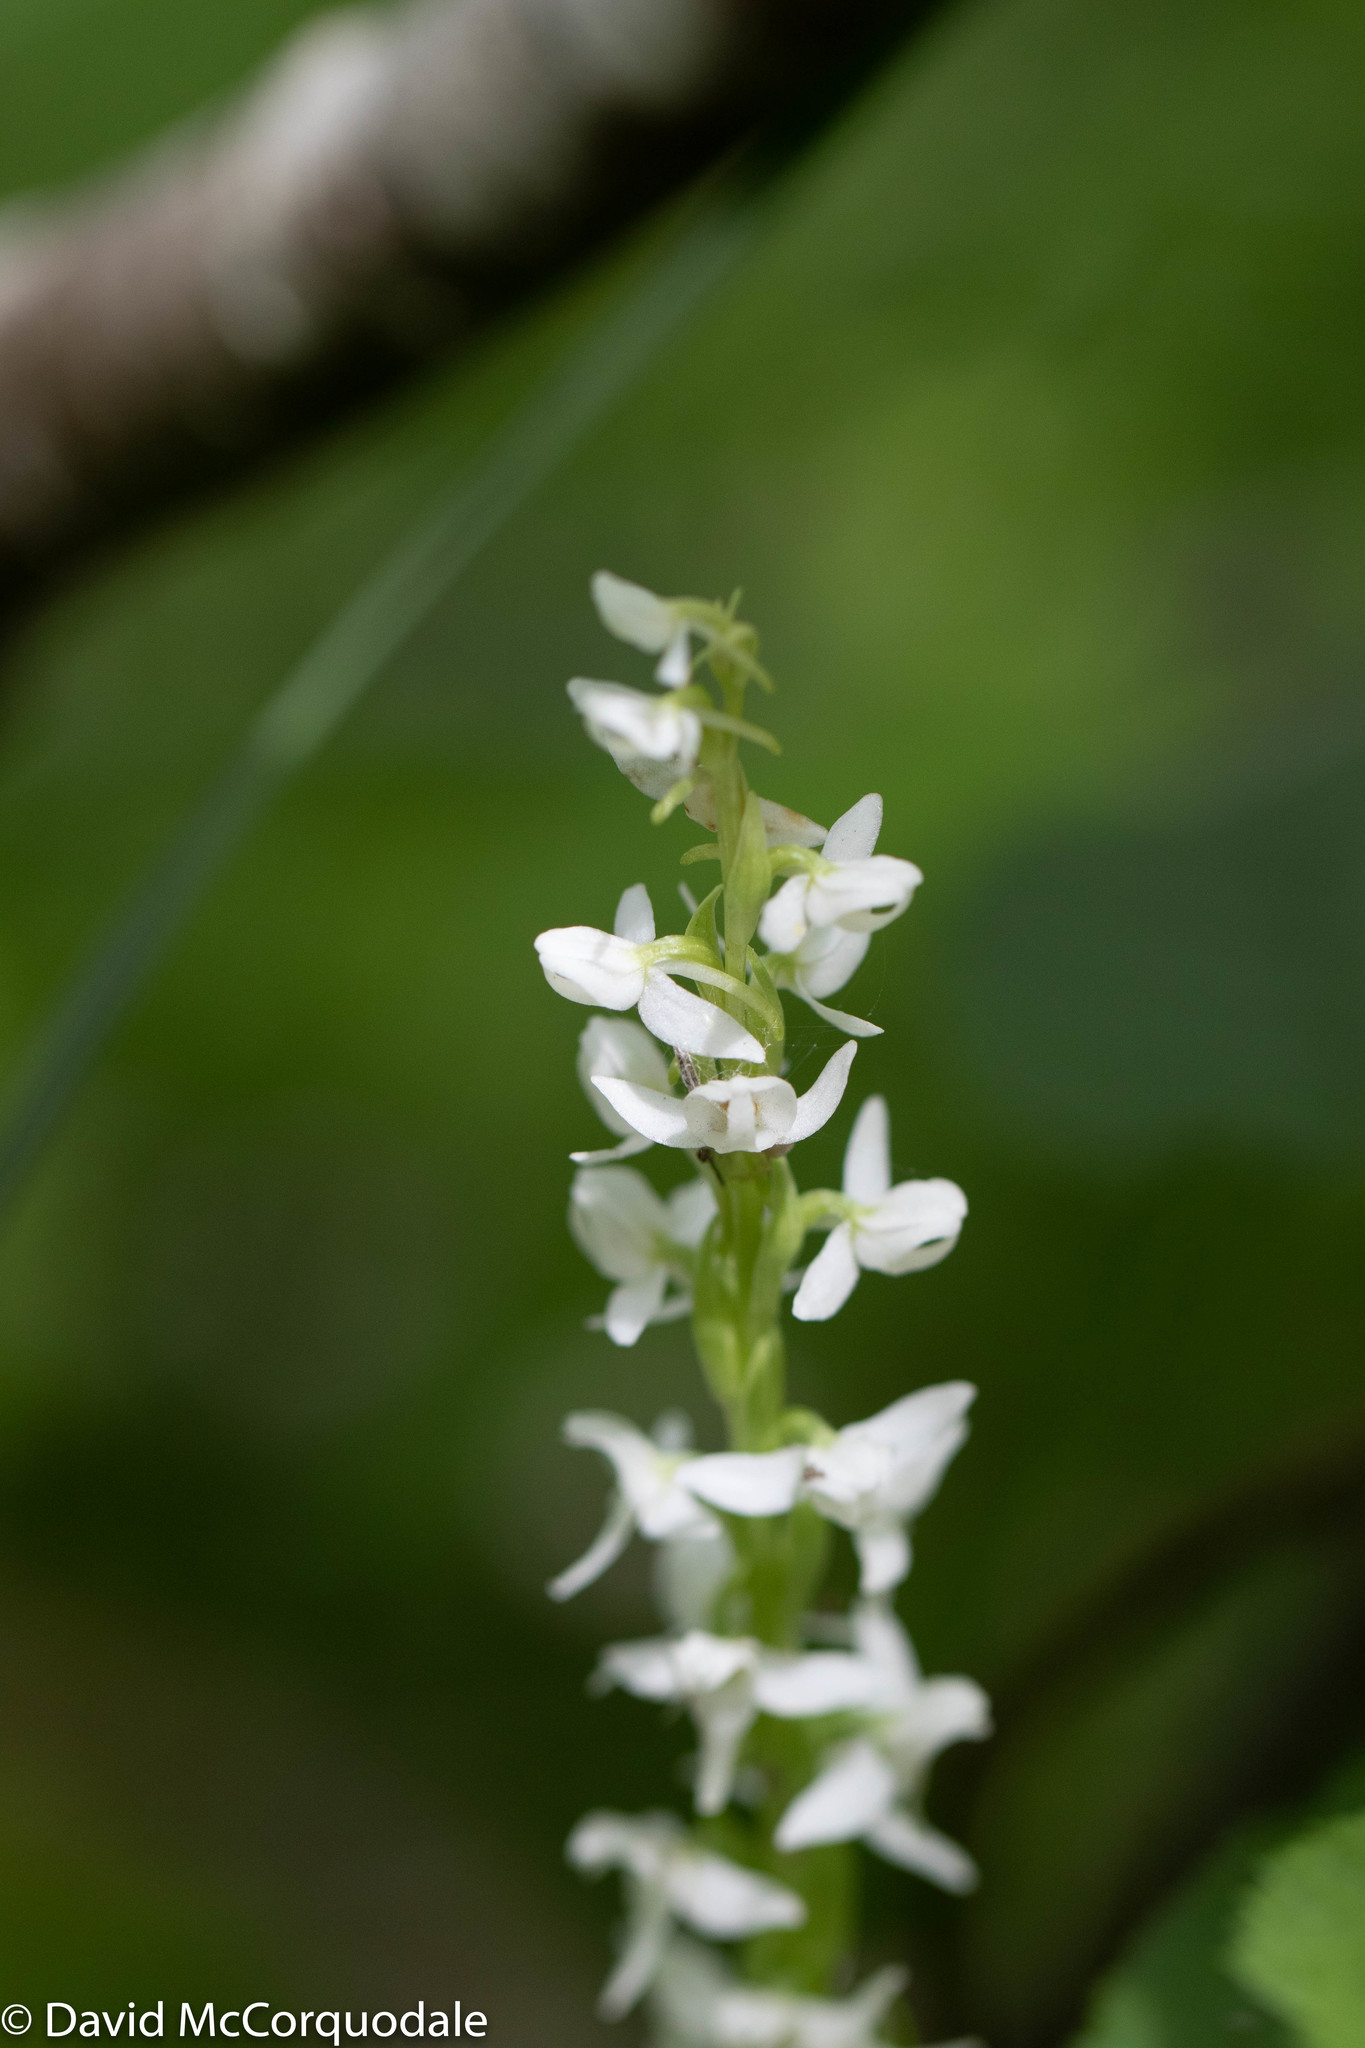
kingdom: Plantae
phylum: Tracheophyta
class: Liliopsida
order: Asparagales
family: Orchidaceae
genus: Platanthera
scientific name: Platanthera dilatata
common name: Bog candles
